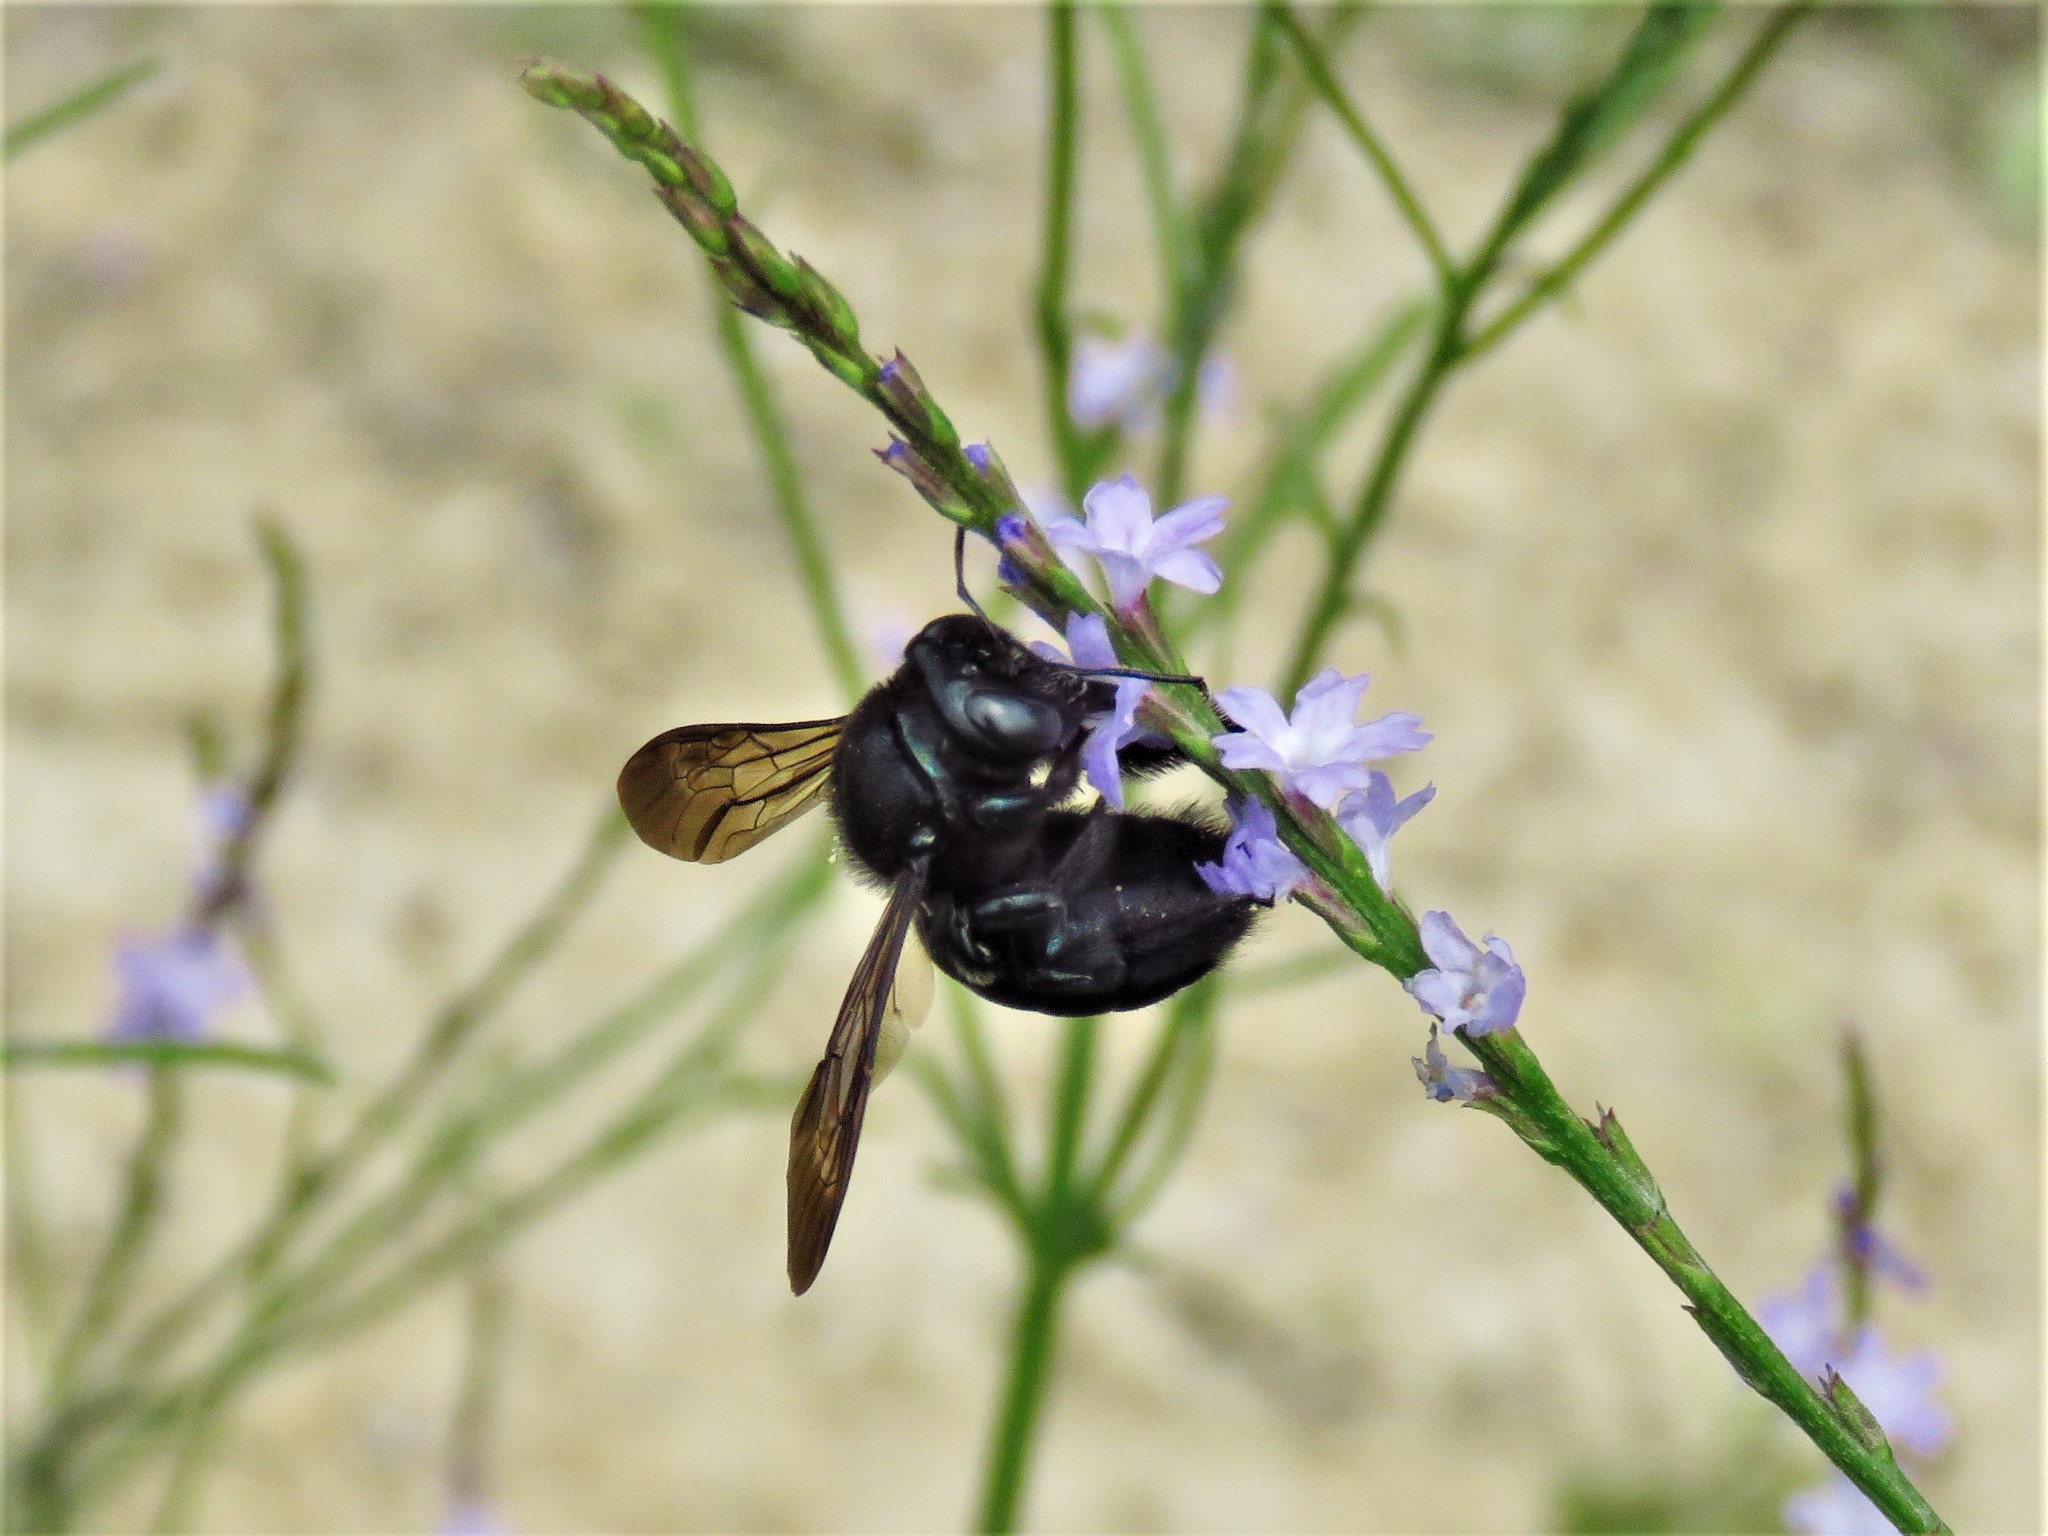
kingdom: Animalia
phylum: Arthropoda
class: Insecta
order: Hymenoptera
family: Apidae
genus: Xylocopa
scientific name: Xylocopa micans
